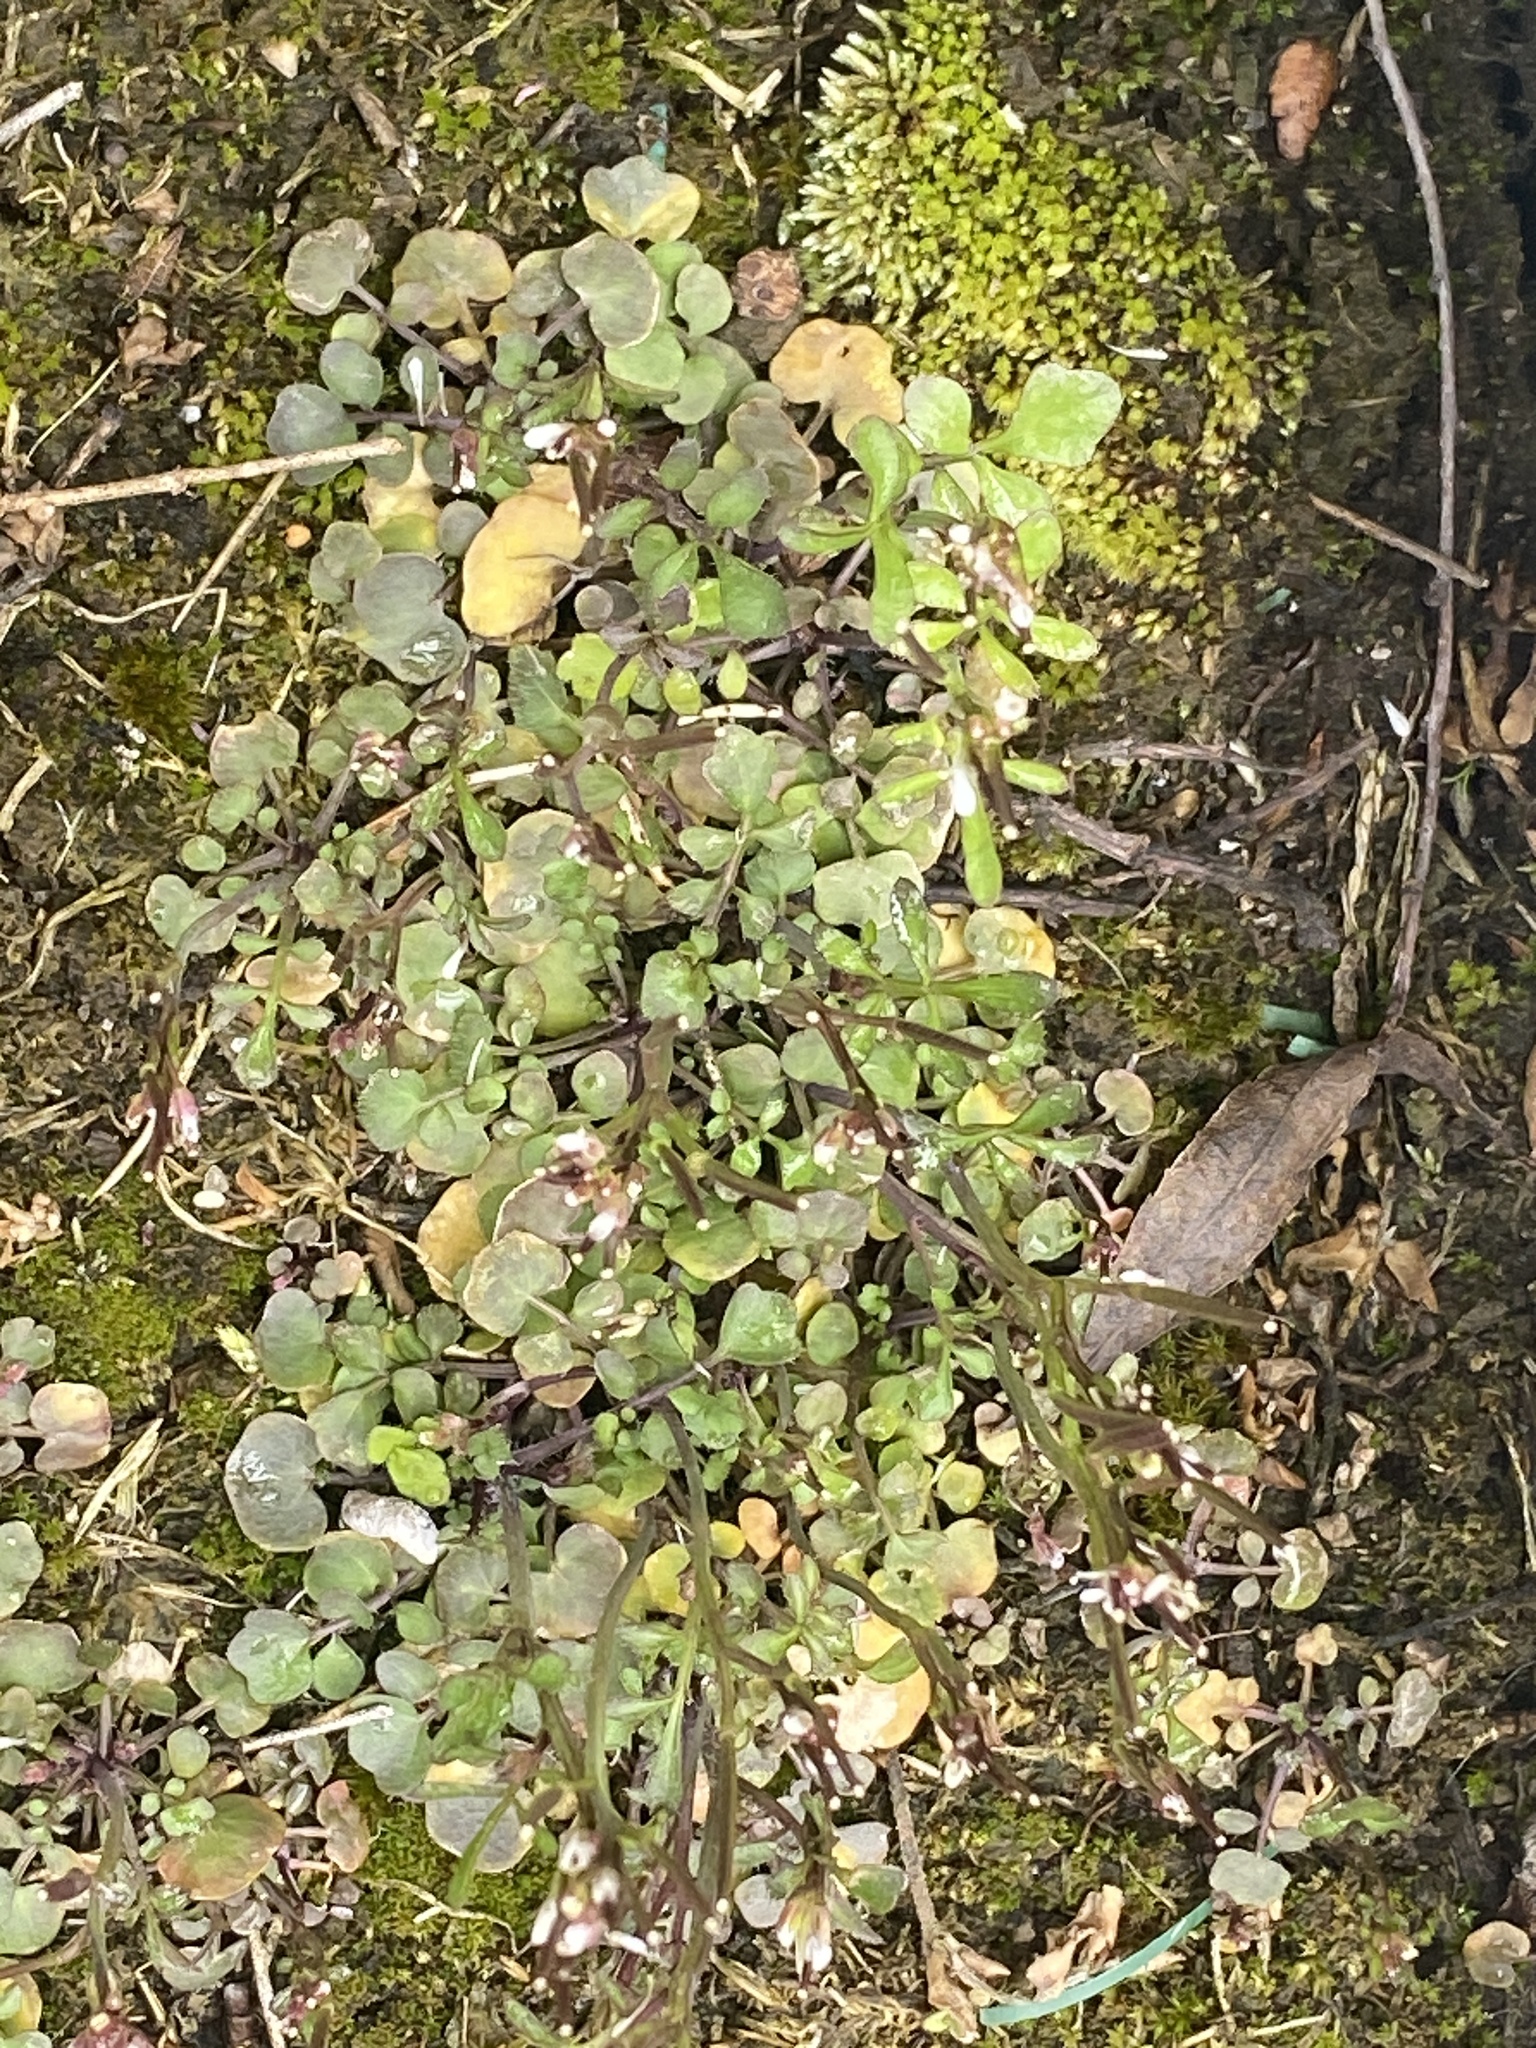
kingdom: Plantae
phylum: Tracheophyta
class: Magnoliopsida
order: Brassicales
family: Brassicaceae
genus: Cardamine
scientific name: Cardamine hirsuta
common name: Hairy bittercress
